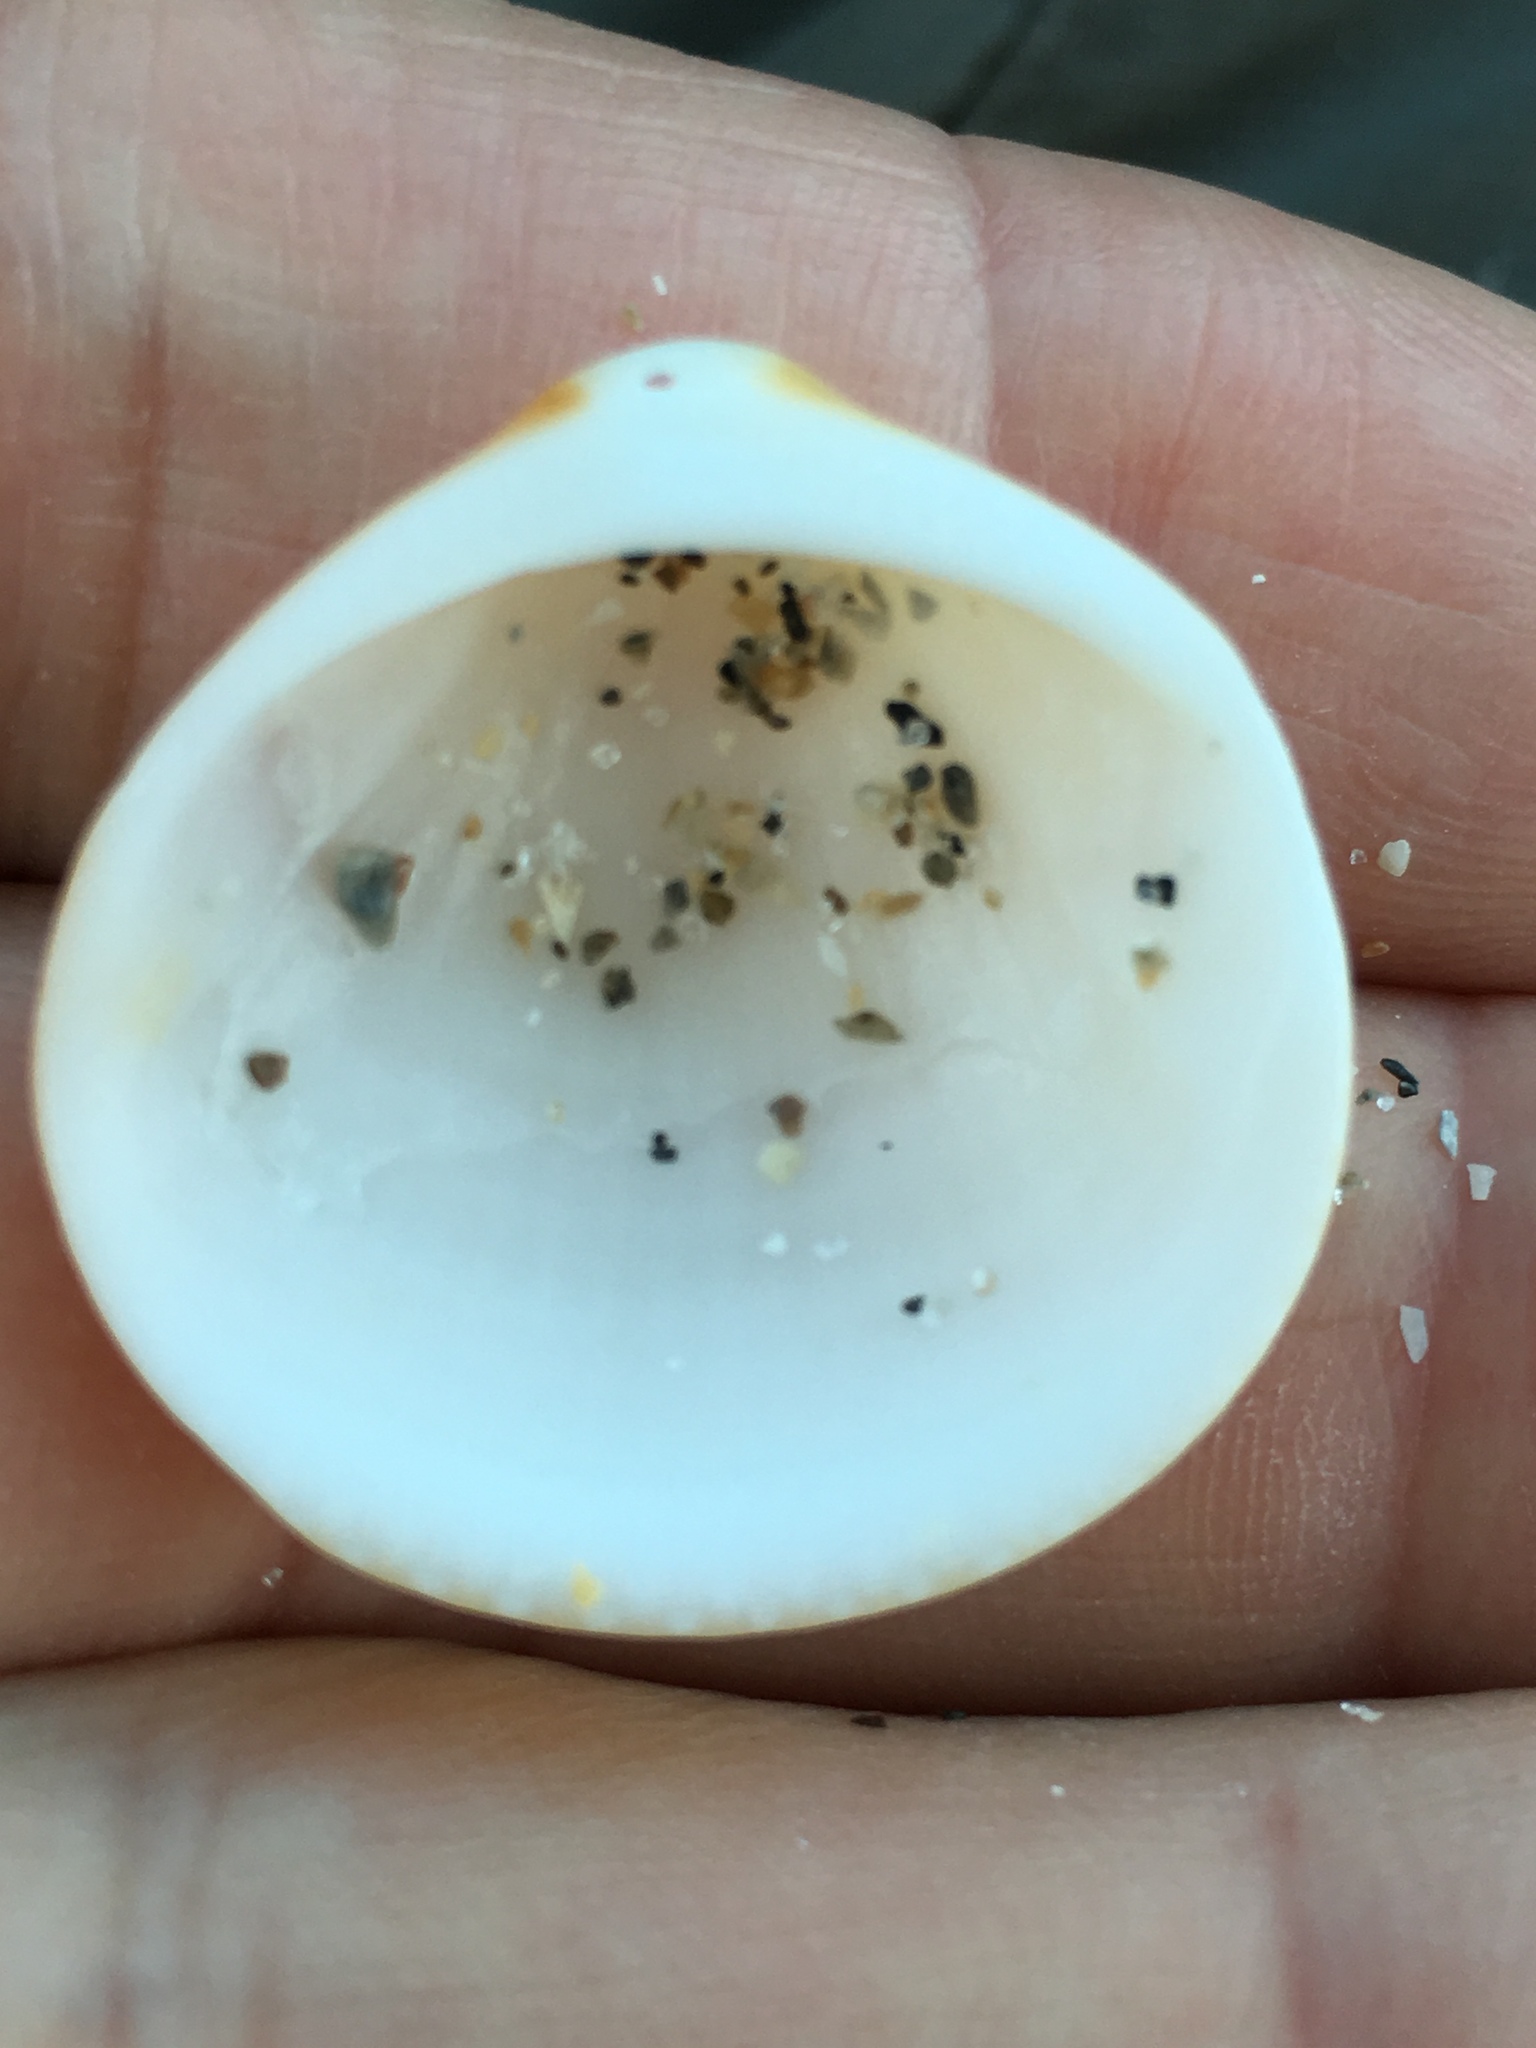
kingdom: Animalia
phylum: Mollusca
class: Bivalvia
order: Arcida
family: Glycymerididae
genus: Glycymeris
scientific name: Glycymeris spectralis
